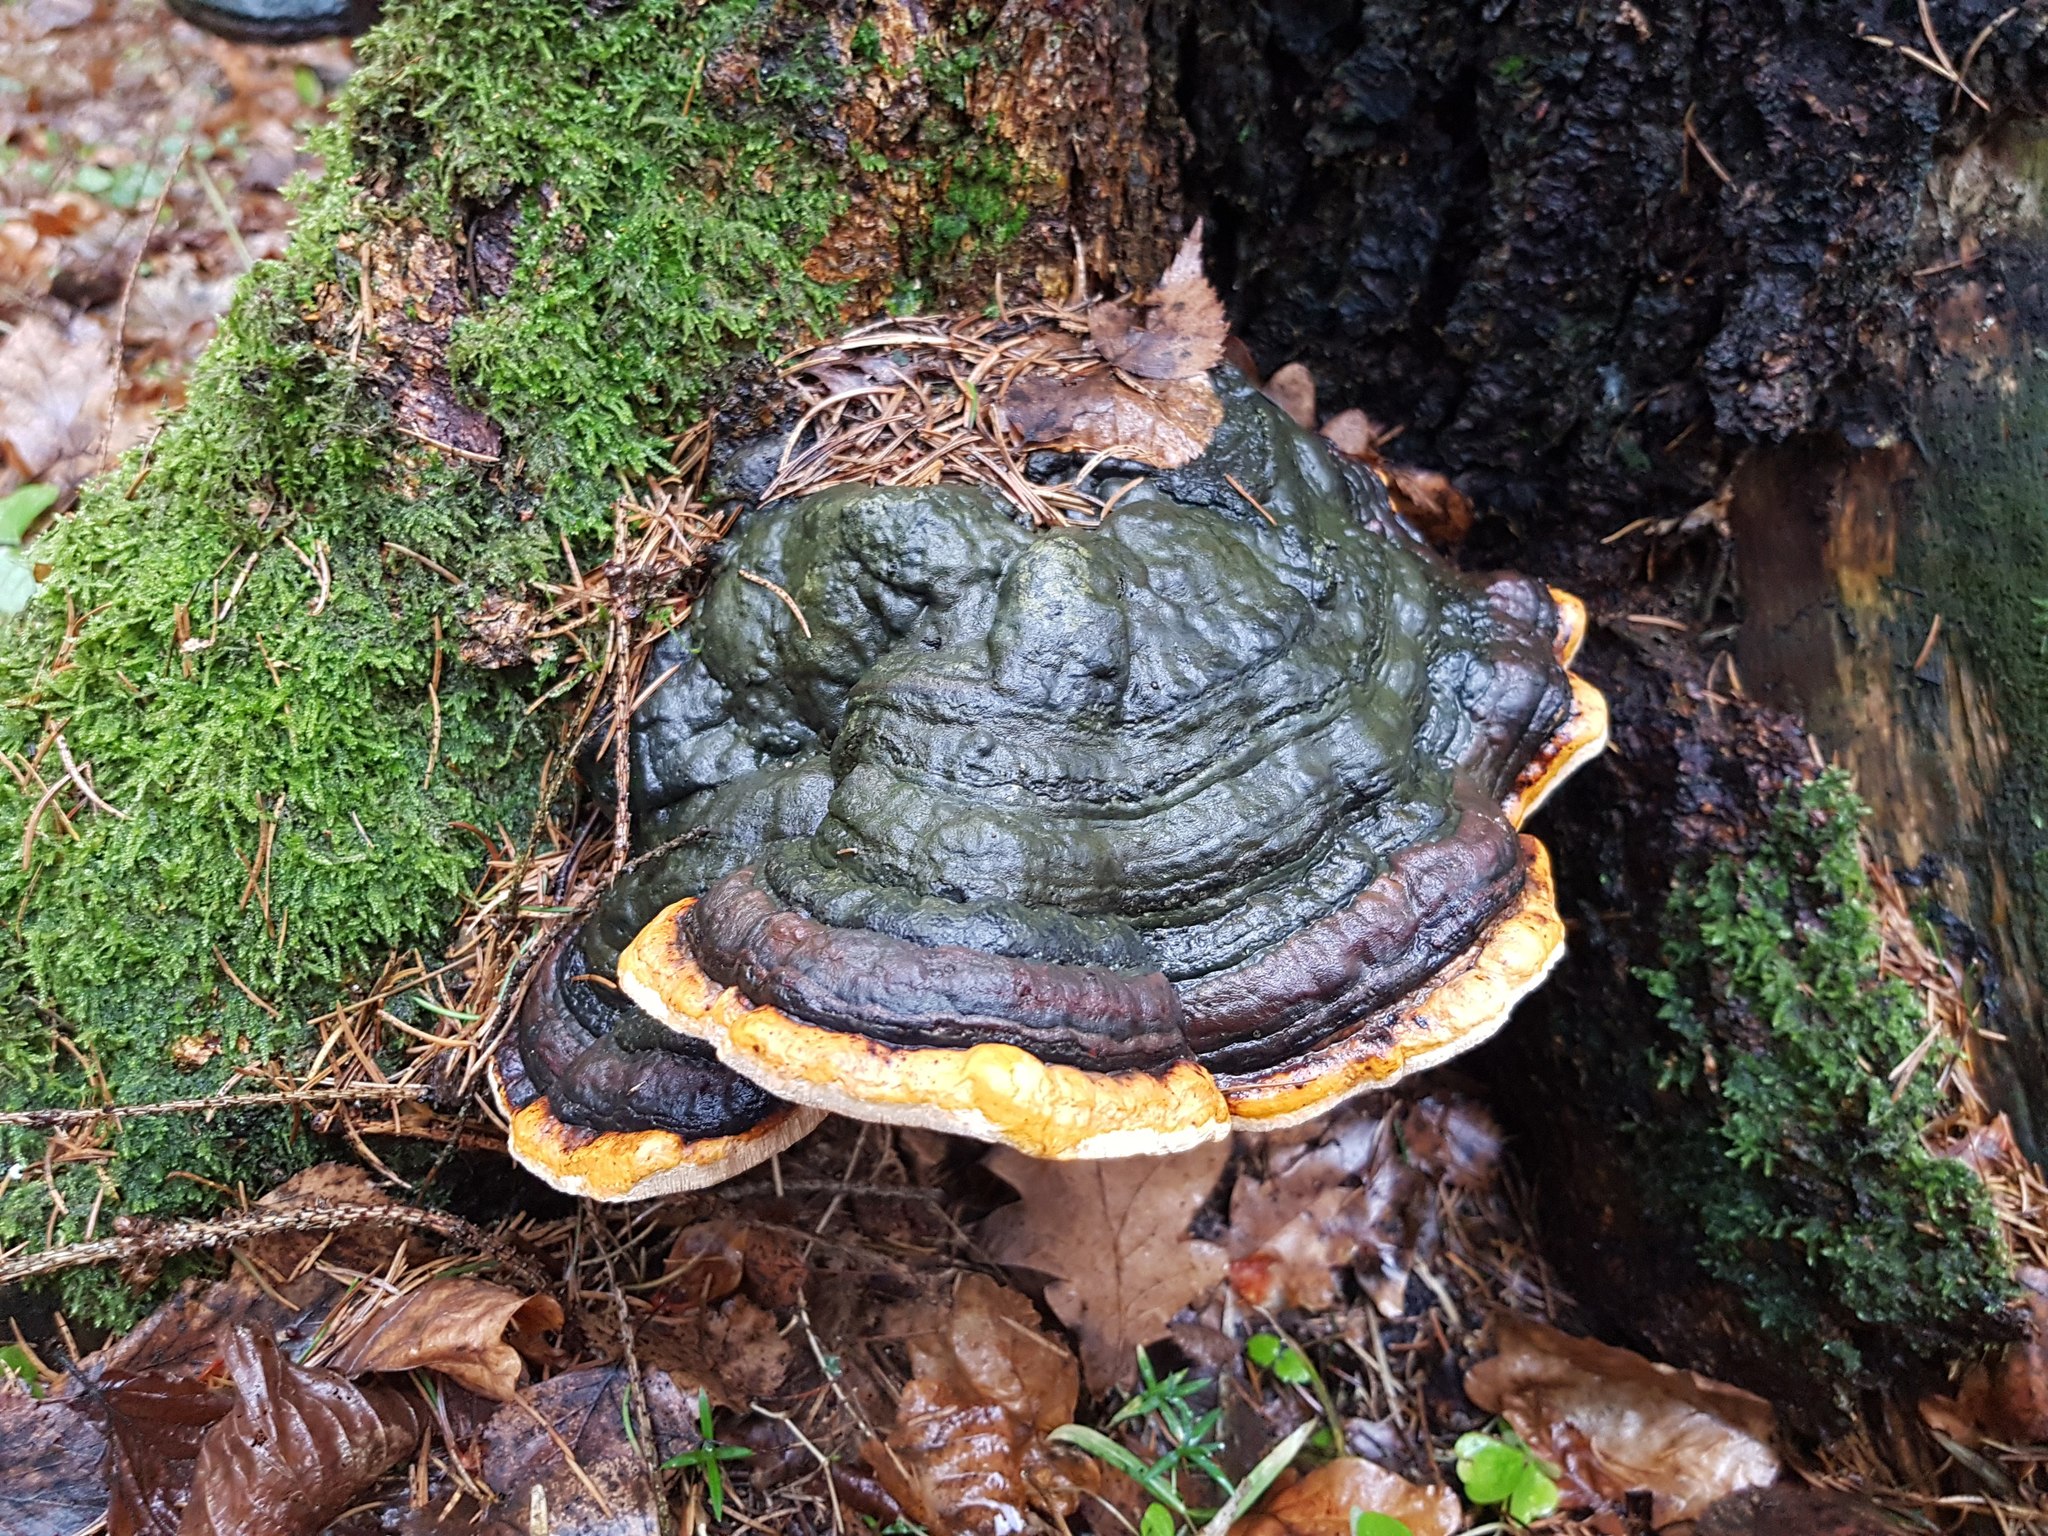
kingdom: Fungi
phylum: Basidiomycota
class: Agaricomycetes
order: Polyporales
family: Fomitopsidaceae
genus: Fomitopsis
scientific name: Fomitopsis pinicola
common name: Red-belted bracket
